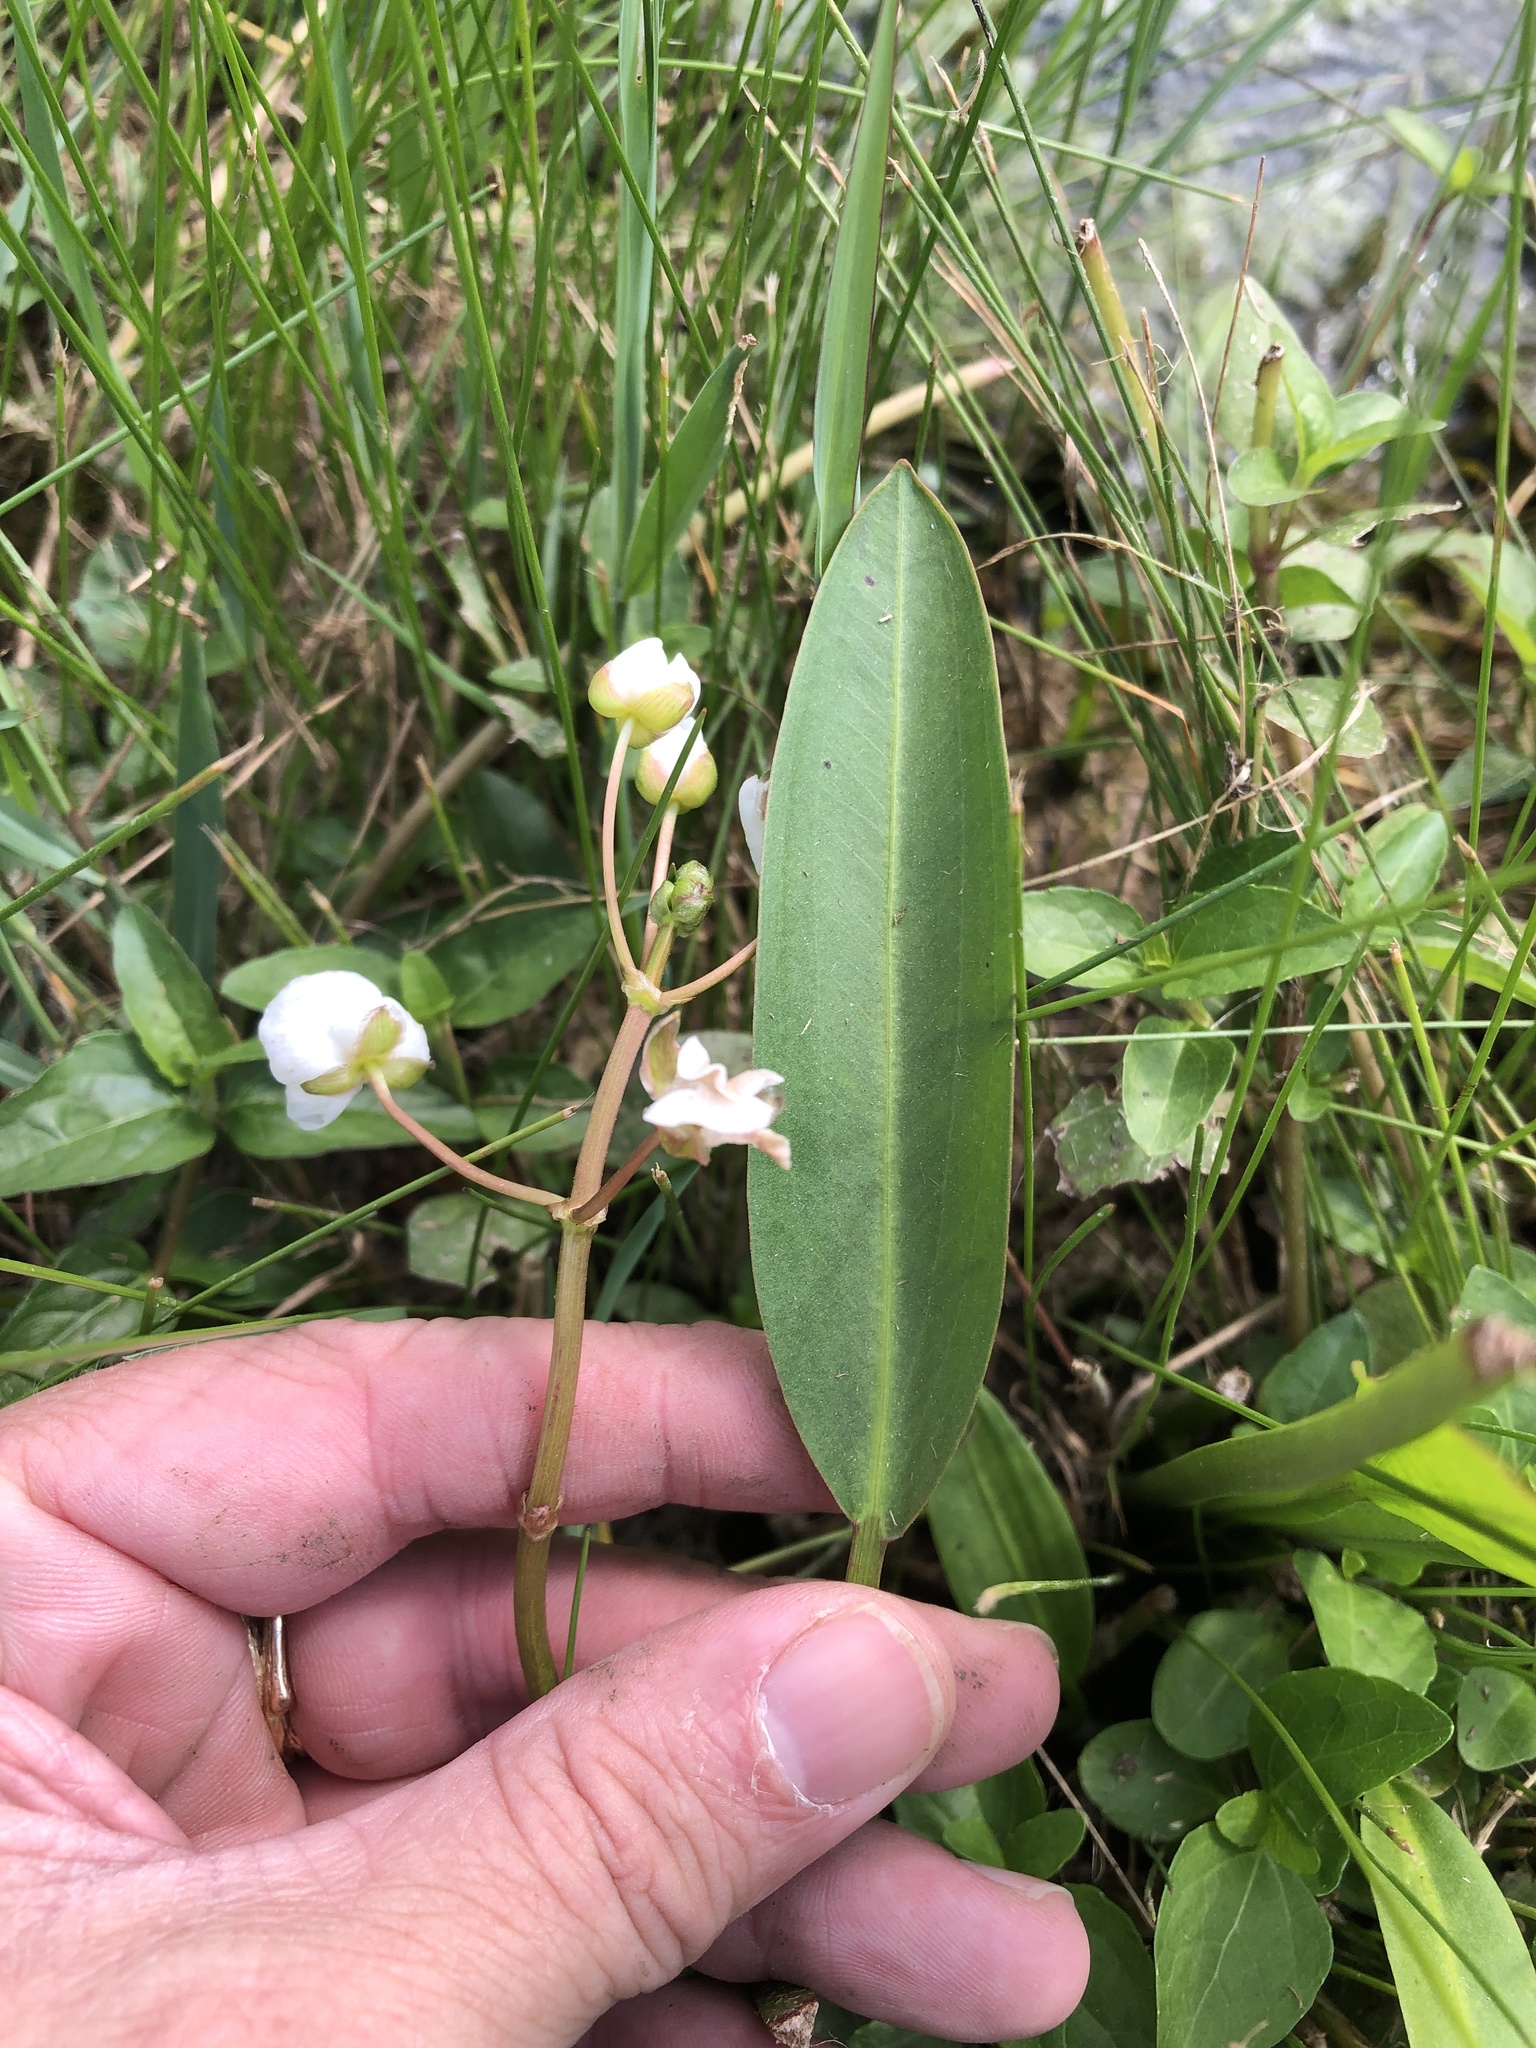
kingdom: Plantae
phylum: Tracheophyta
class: Liliopsida
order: Alismatales
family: Alismataceae
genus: Sagittaria
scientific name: Sagittaria platyphylla
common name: Broad-leaf arrowhead
